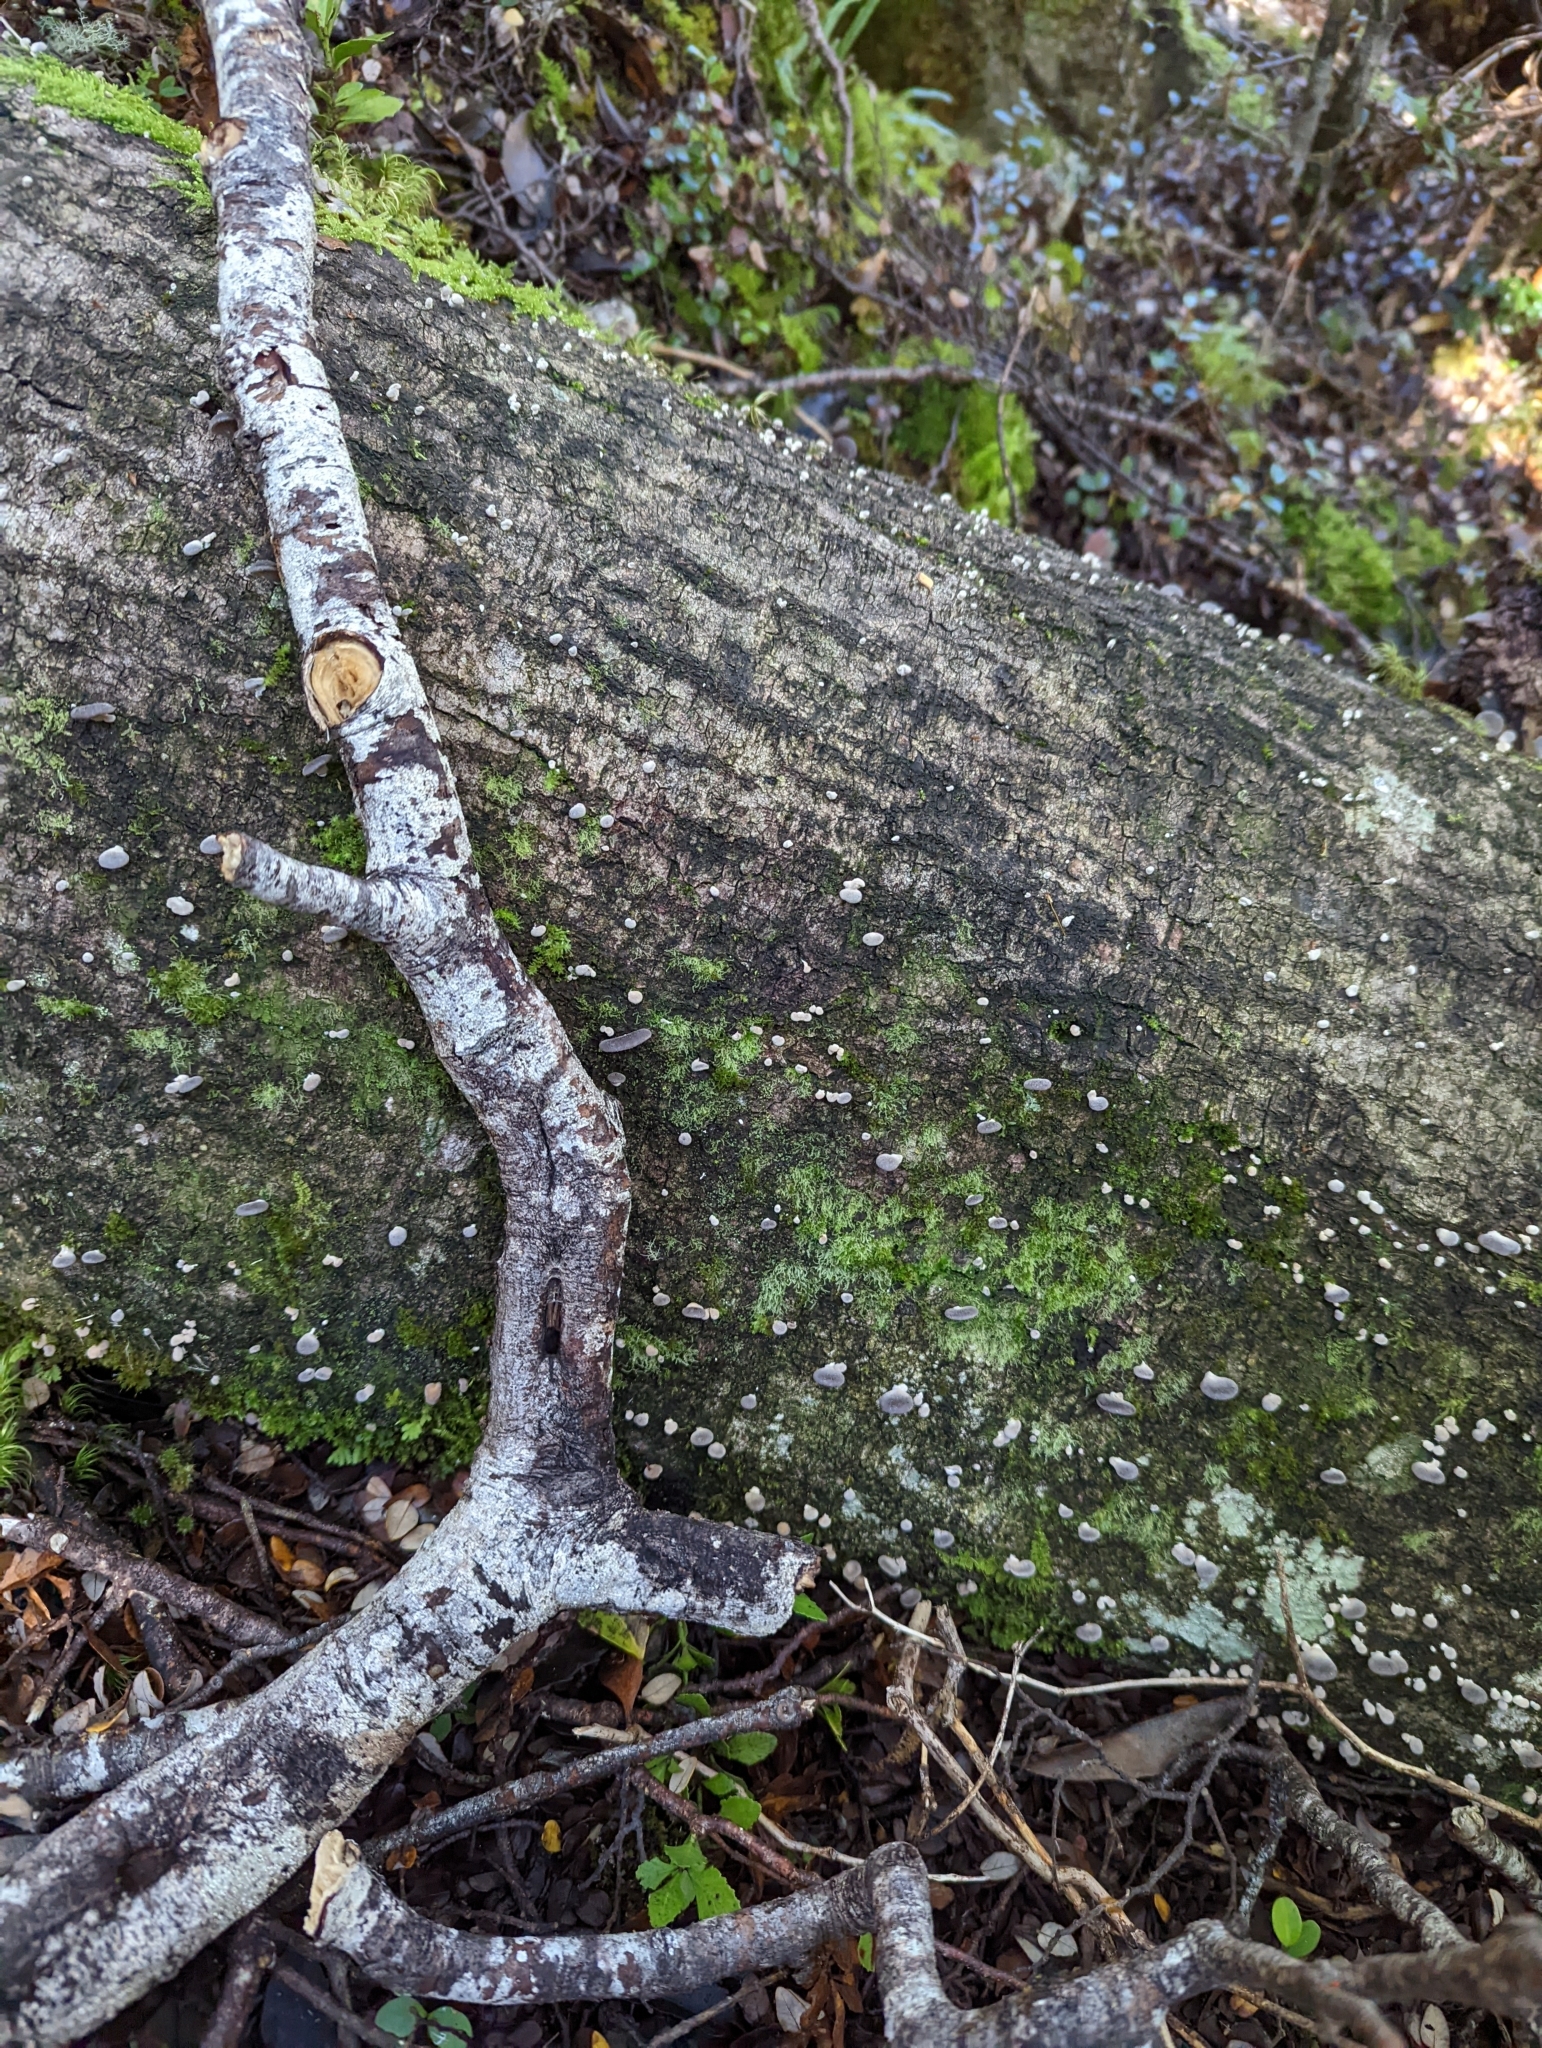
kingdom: Fungi
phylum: Basidiomycota
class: Agaricomycetes
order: Agaricales
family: Pleurotaceae
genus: Pleurotus
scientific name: Pleurotus purpureo-olivaceus
